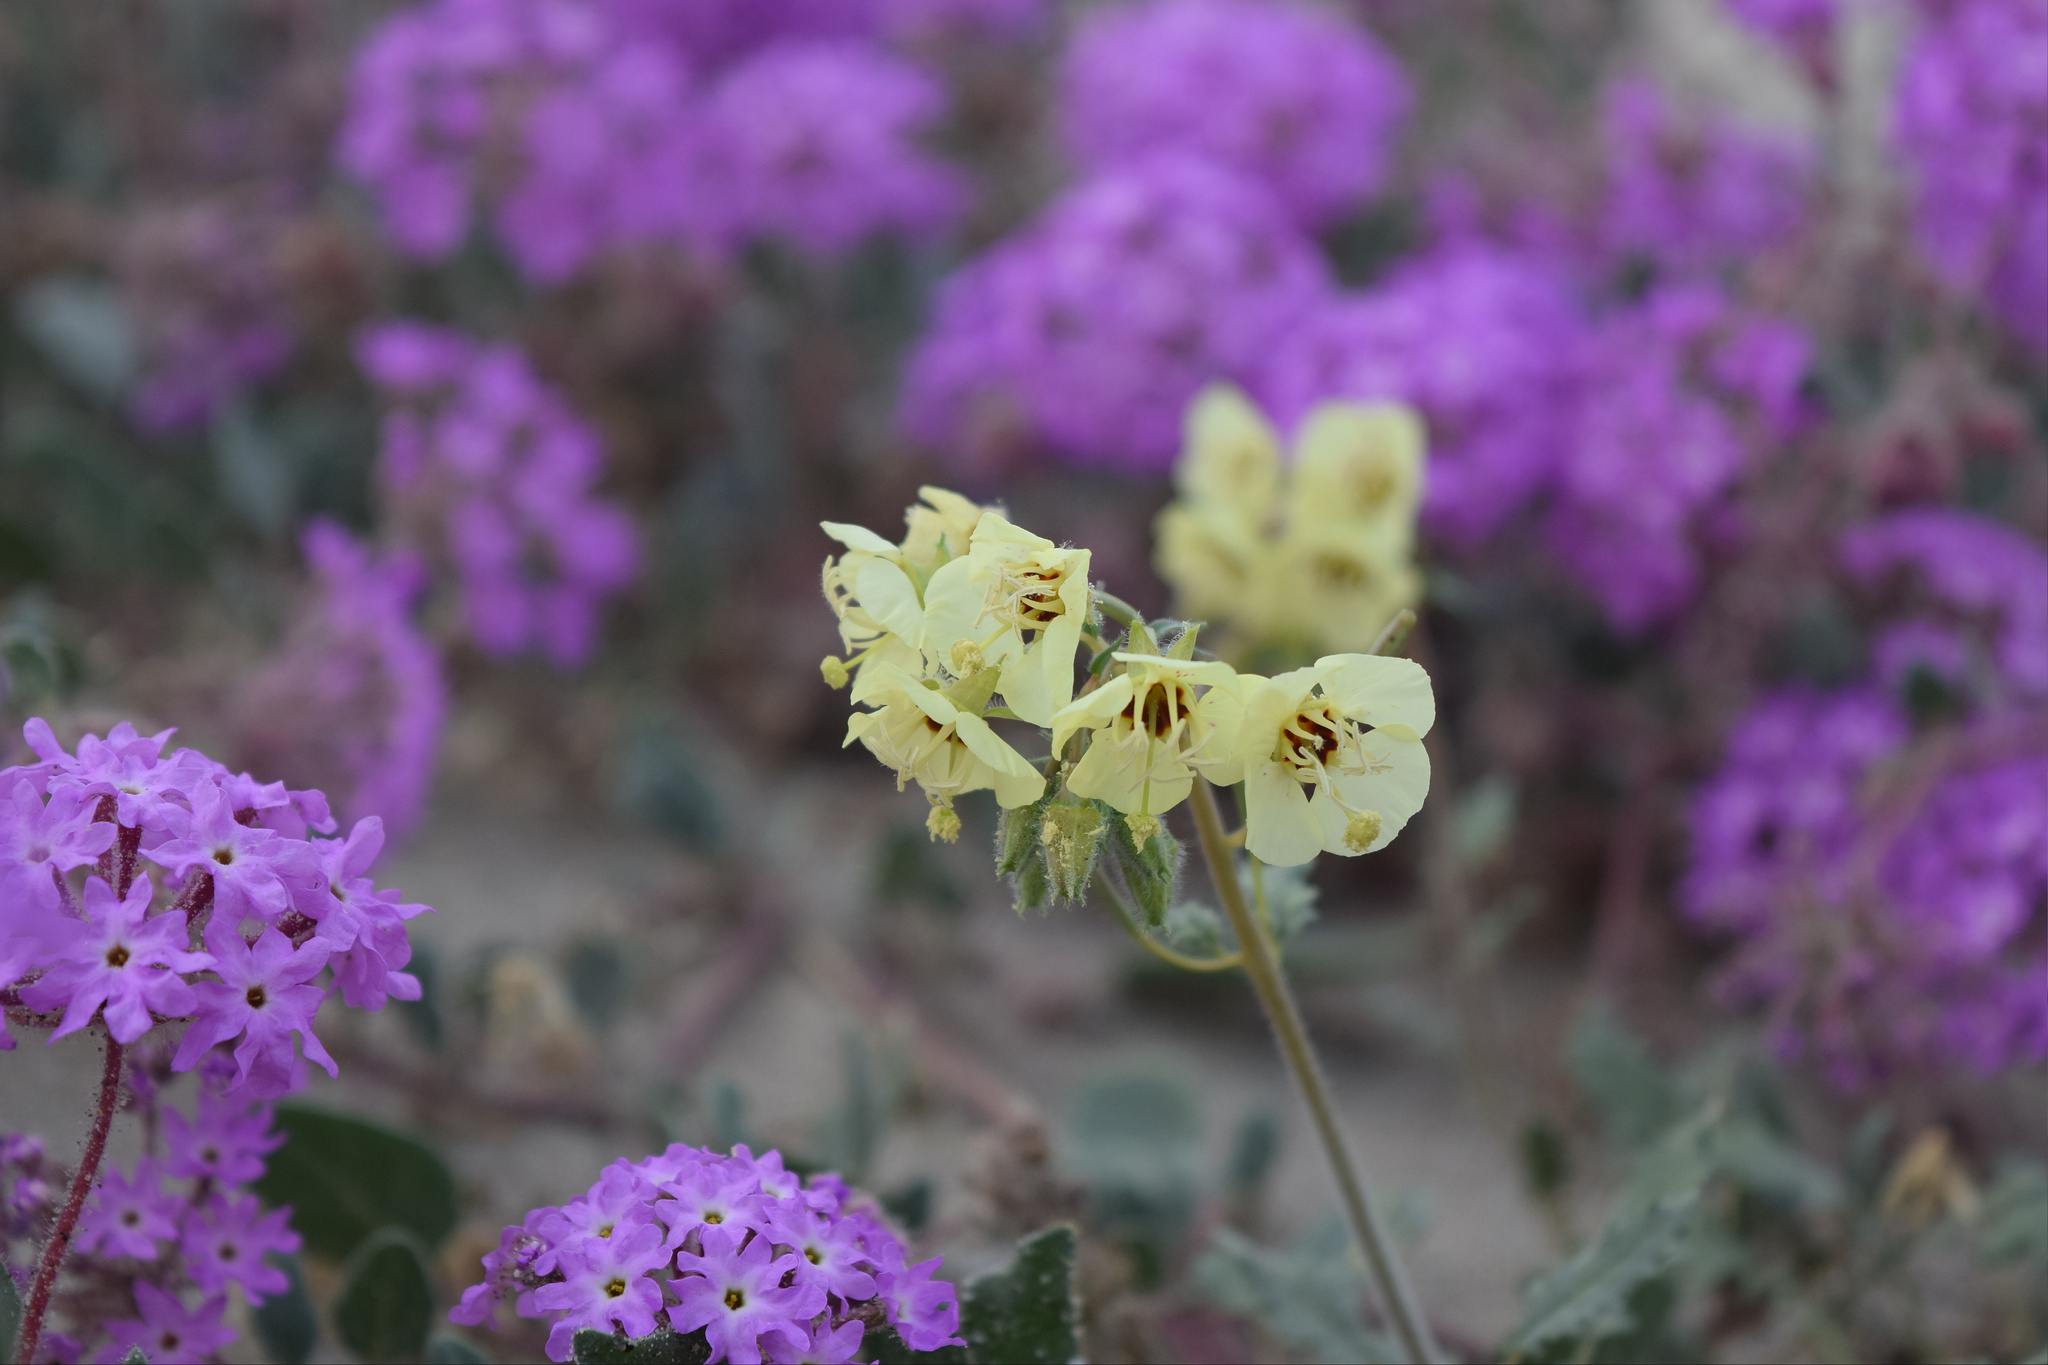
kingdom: Plantae
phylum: Tracheophyta
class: Magnoliopsida
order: Myrtales
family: Onagraceae
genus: Chylismia
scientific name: Chylismia claviformis
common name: Browneyes
